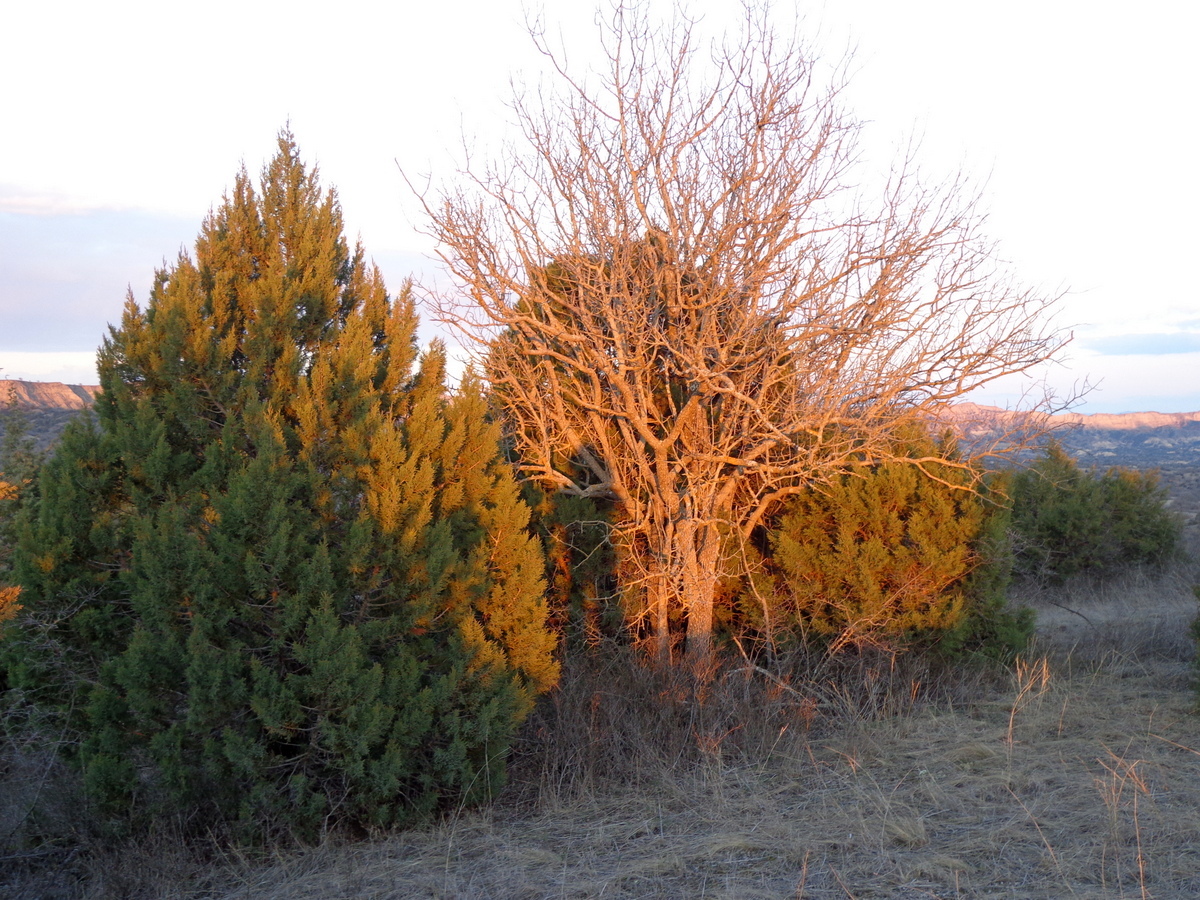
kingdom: Plantae
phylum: Tracheophyta
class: Pinopsida
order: Pinales
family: Cupressaceae
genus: Juniperus
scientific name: Juniperus foetidissima
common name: Stinking juniper
